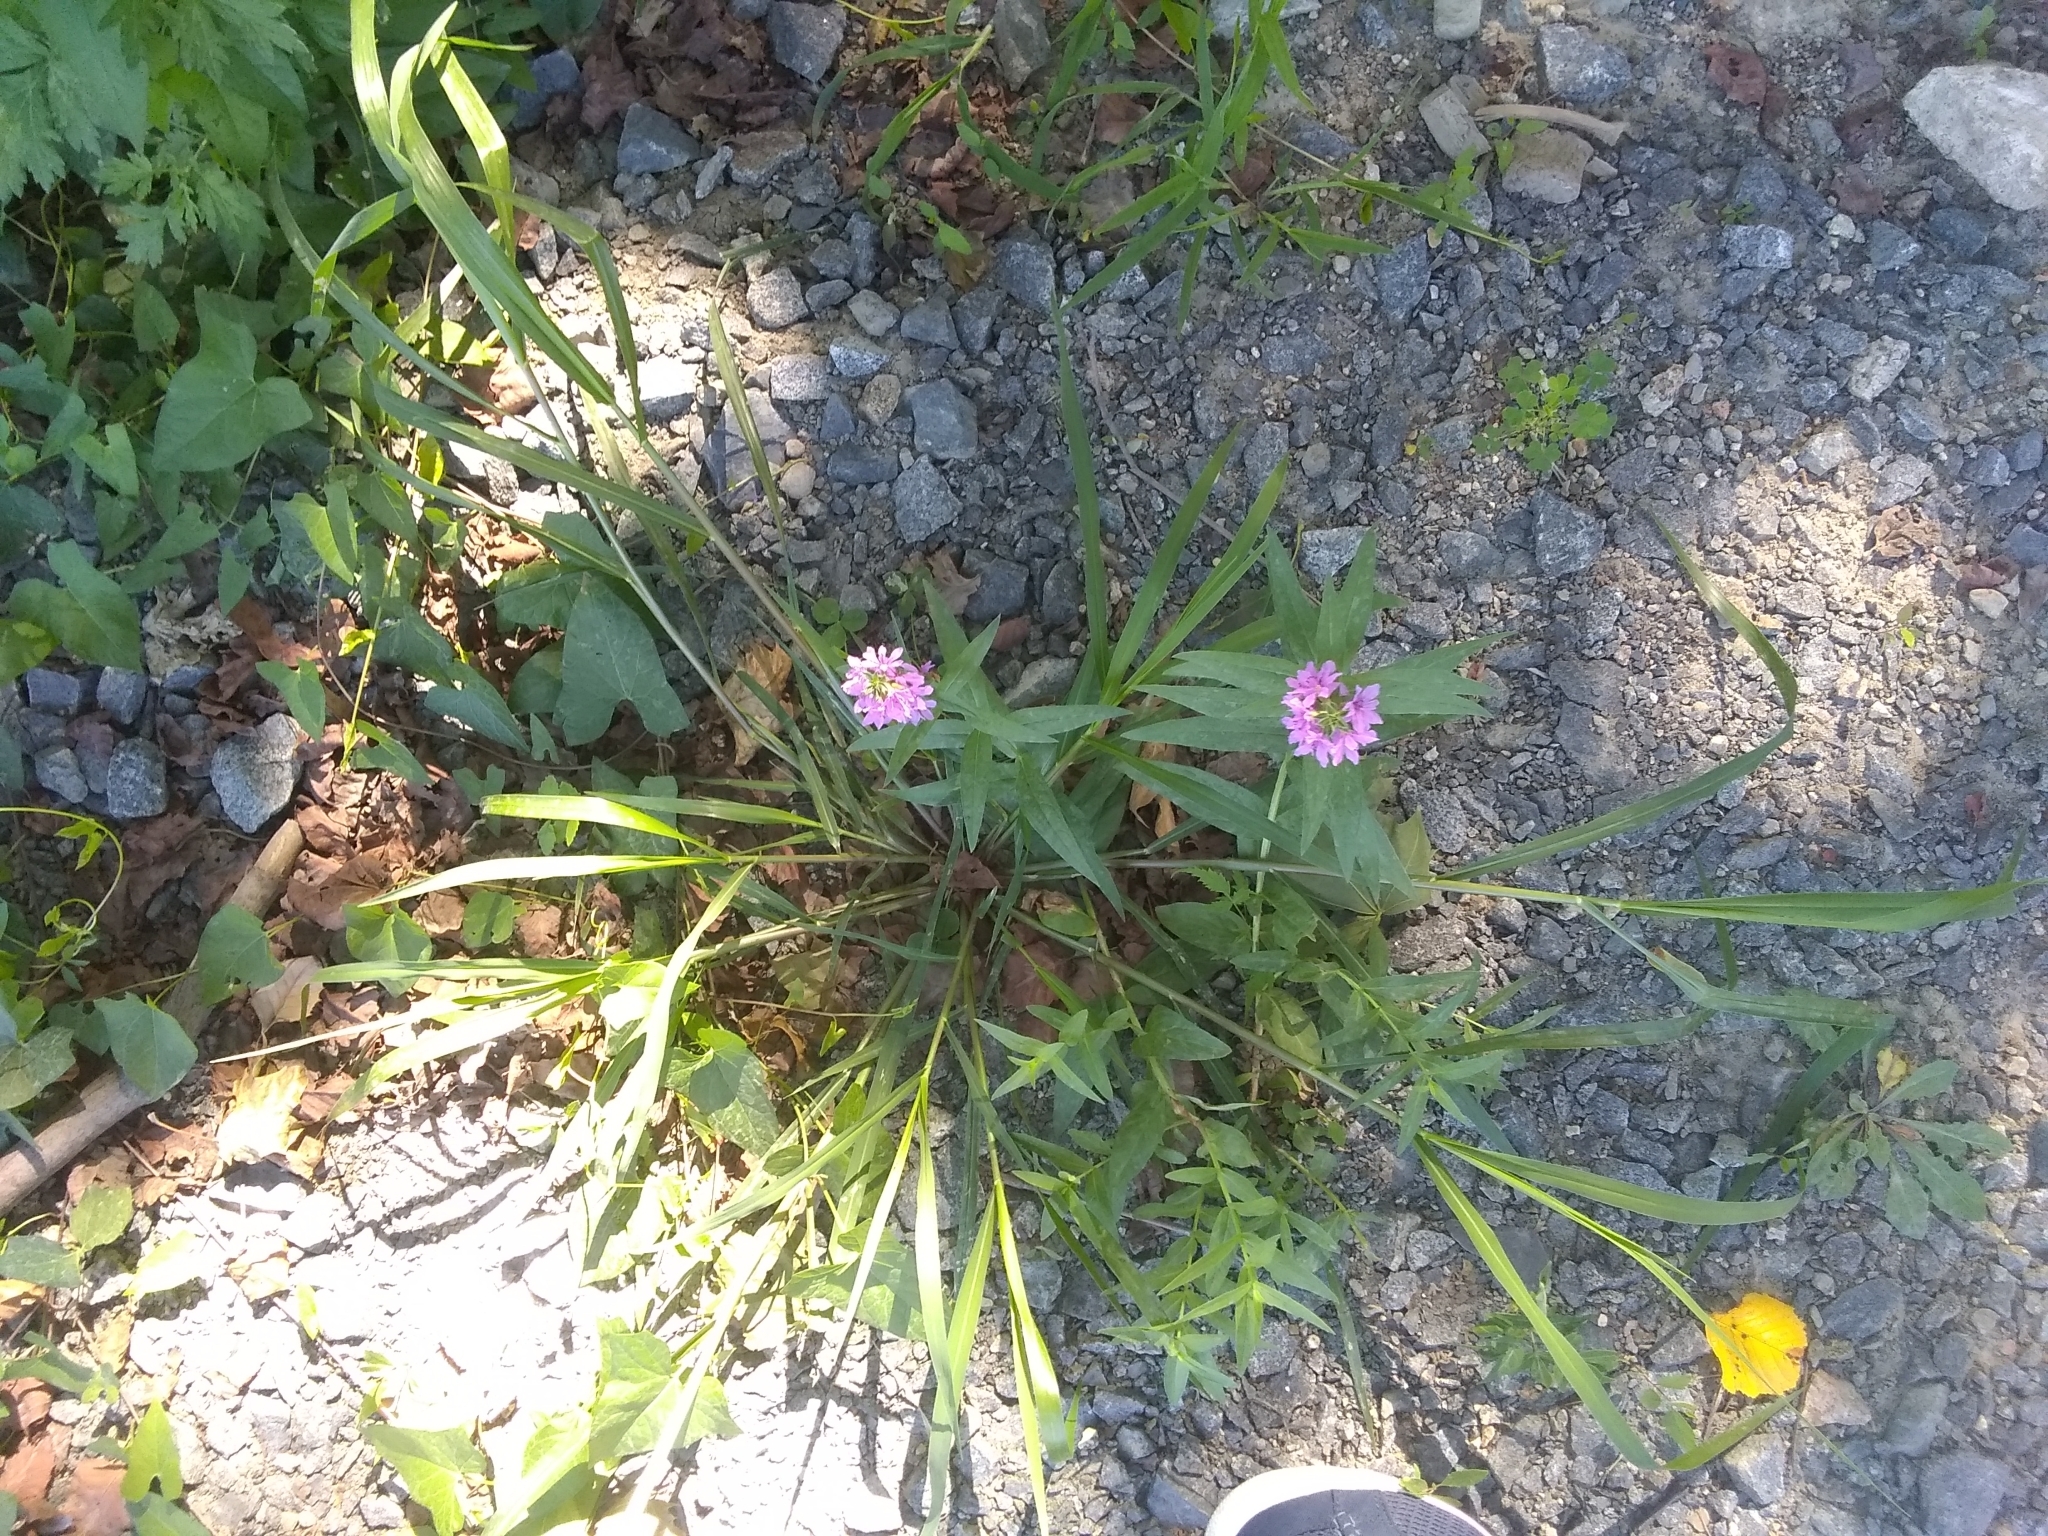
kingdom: Plantae
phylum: Tracheophyta
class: Magnoliopsida
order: Myrtales
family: Lythraceae
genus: Lythrum
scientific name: Lythrum salicaria
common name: Purple loosestrife
